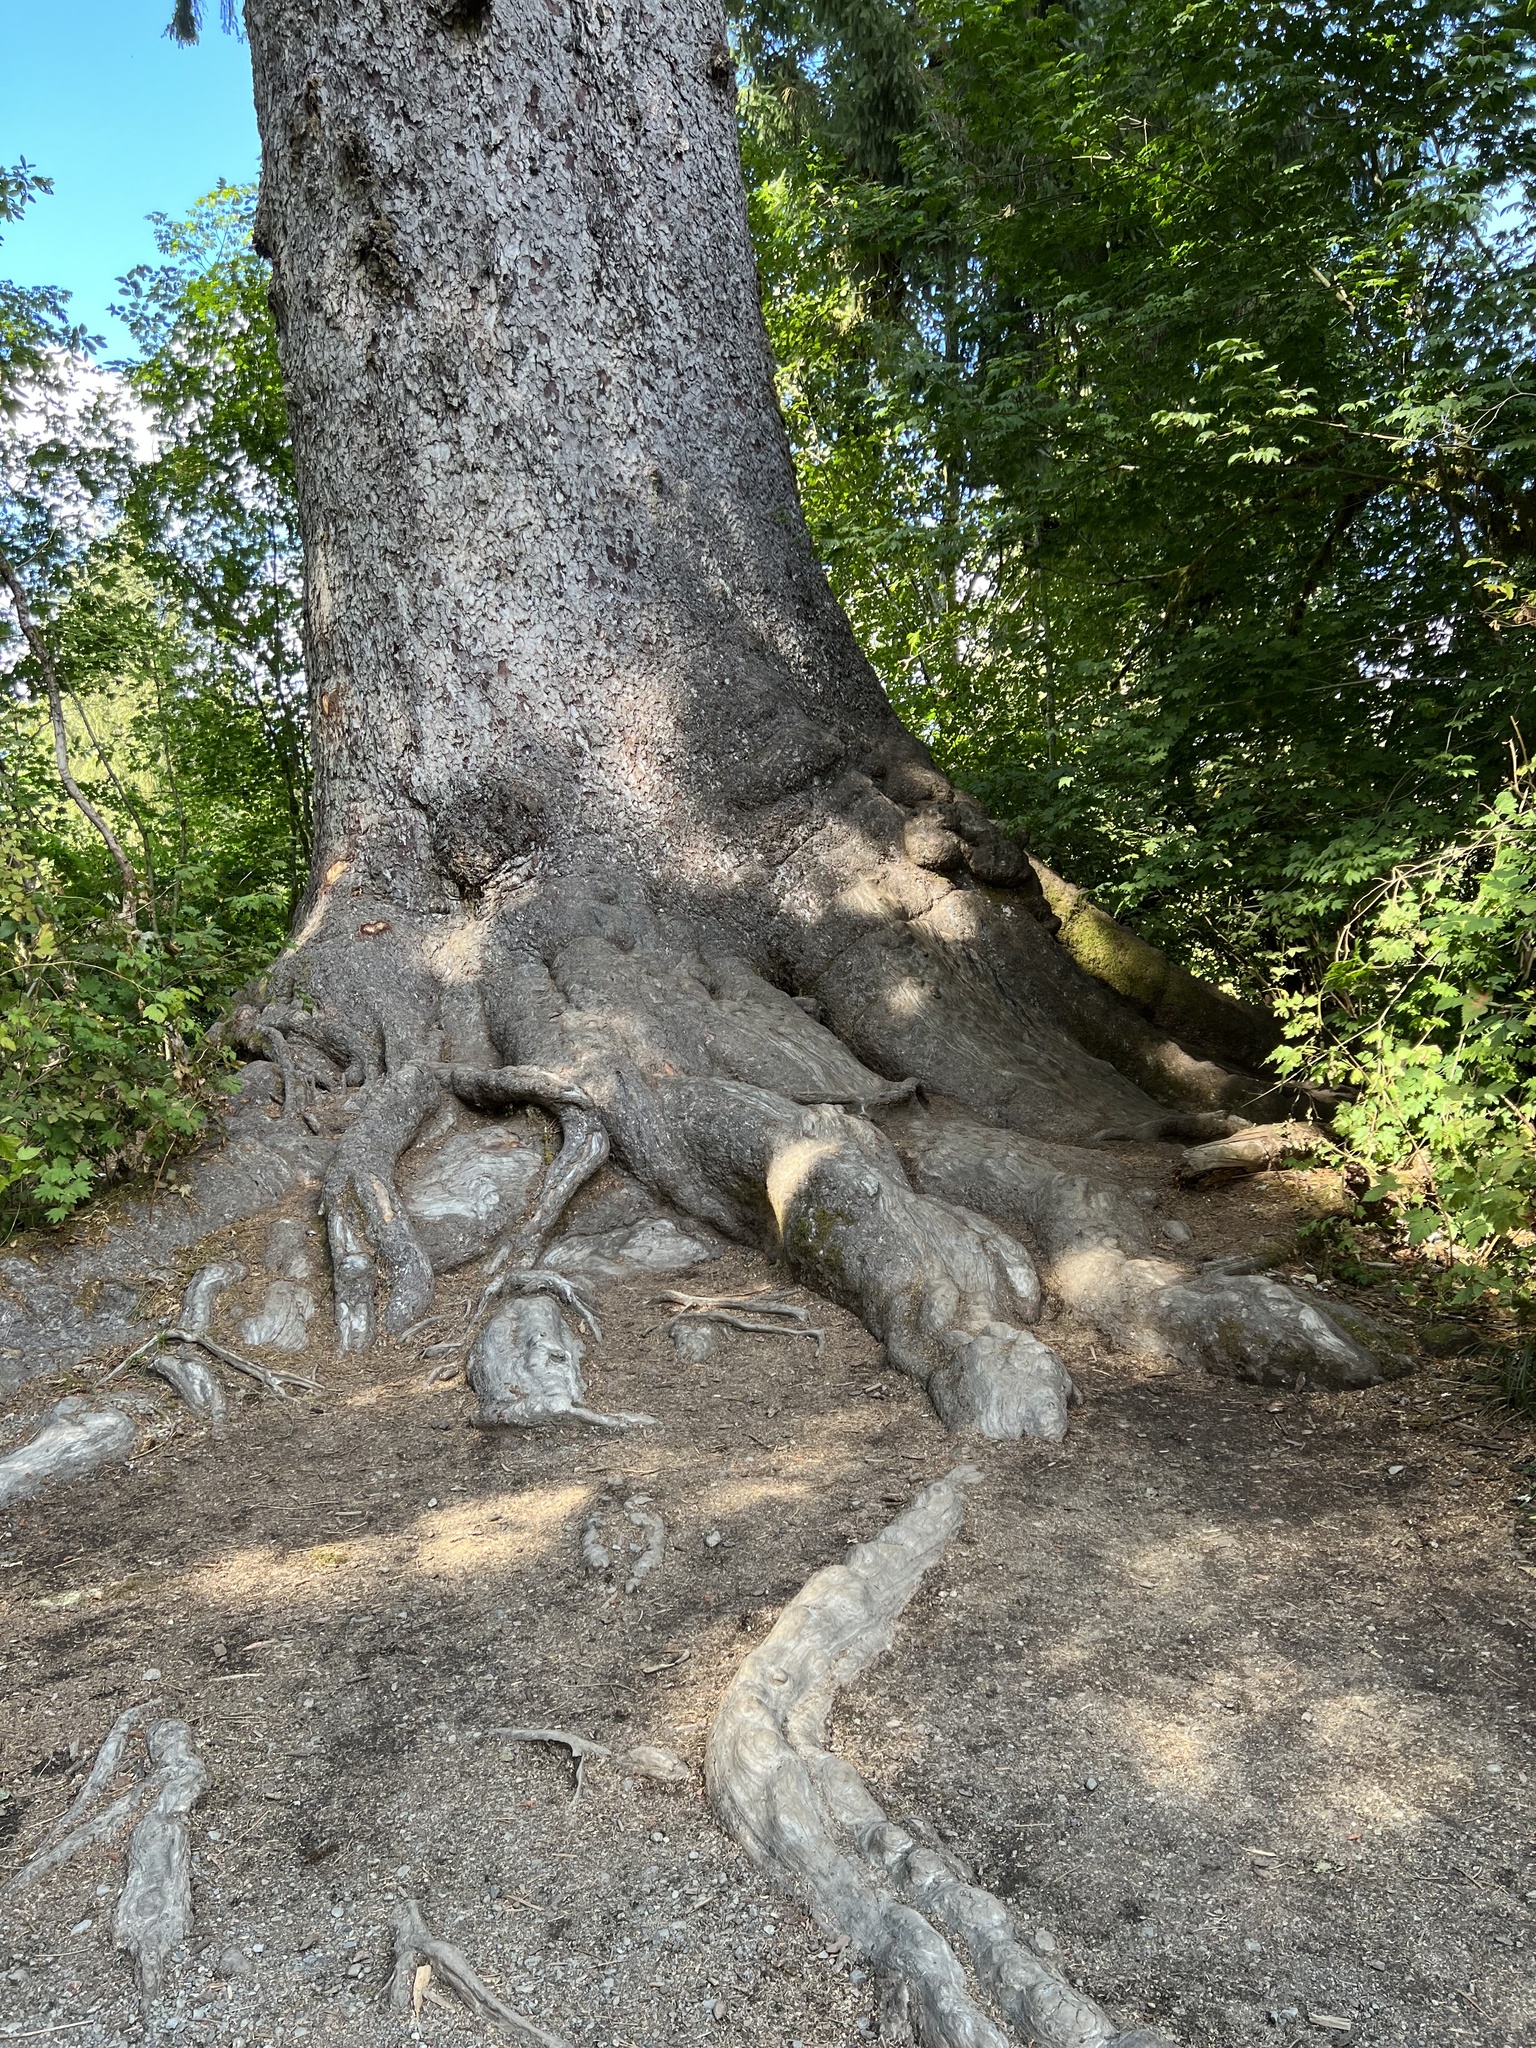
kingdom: Plantae
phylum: Tracheophyta
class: Pinopsida
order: Pinales
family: Pinaceae
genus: Picea
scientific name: Picea sitchensis
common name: Sitka spruce
